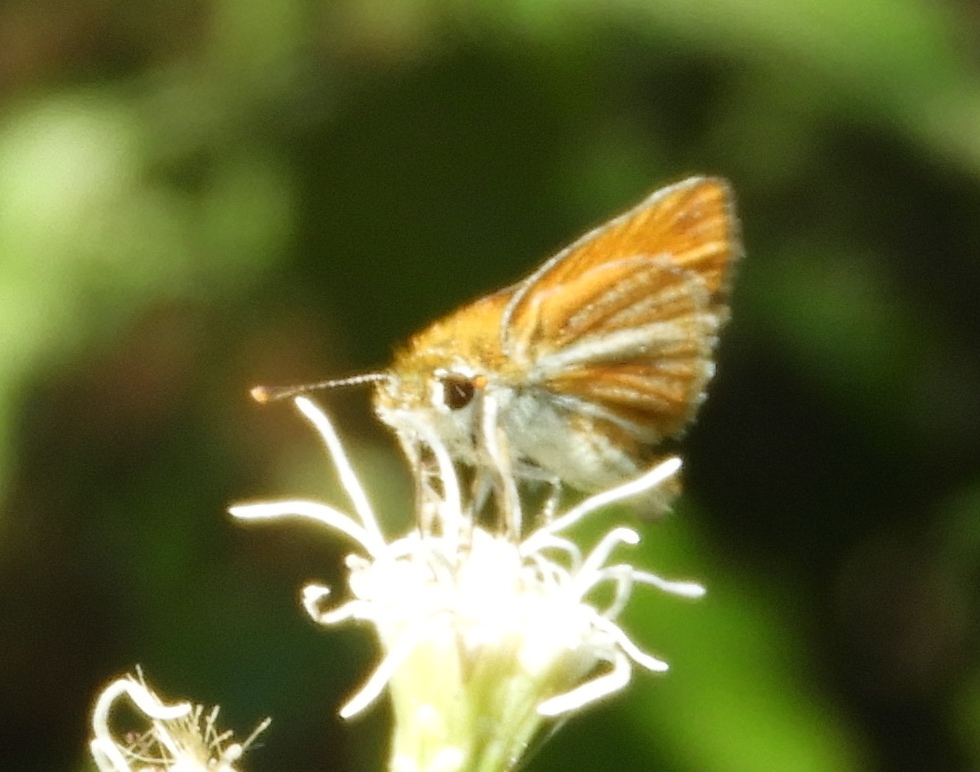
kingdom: Animalia
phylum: Arthropoda
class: Insecta
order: Lepidoptera
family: Hesperiidae
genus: Copaeodes
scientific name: Copaeodes minima
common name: Southern skipperling
